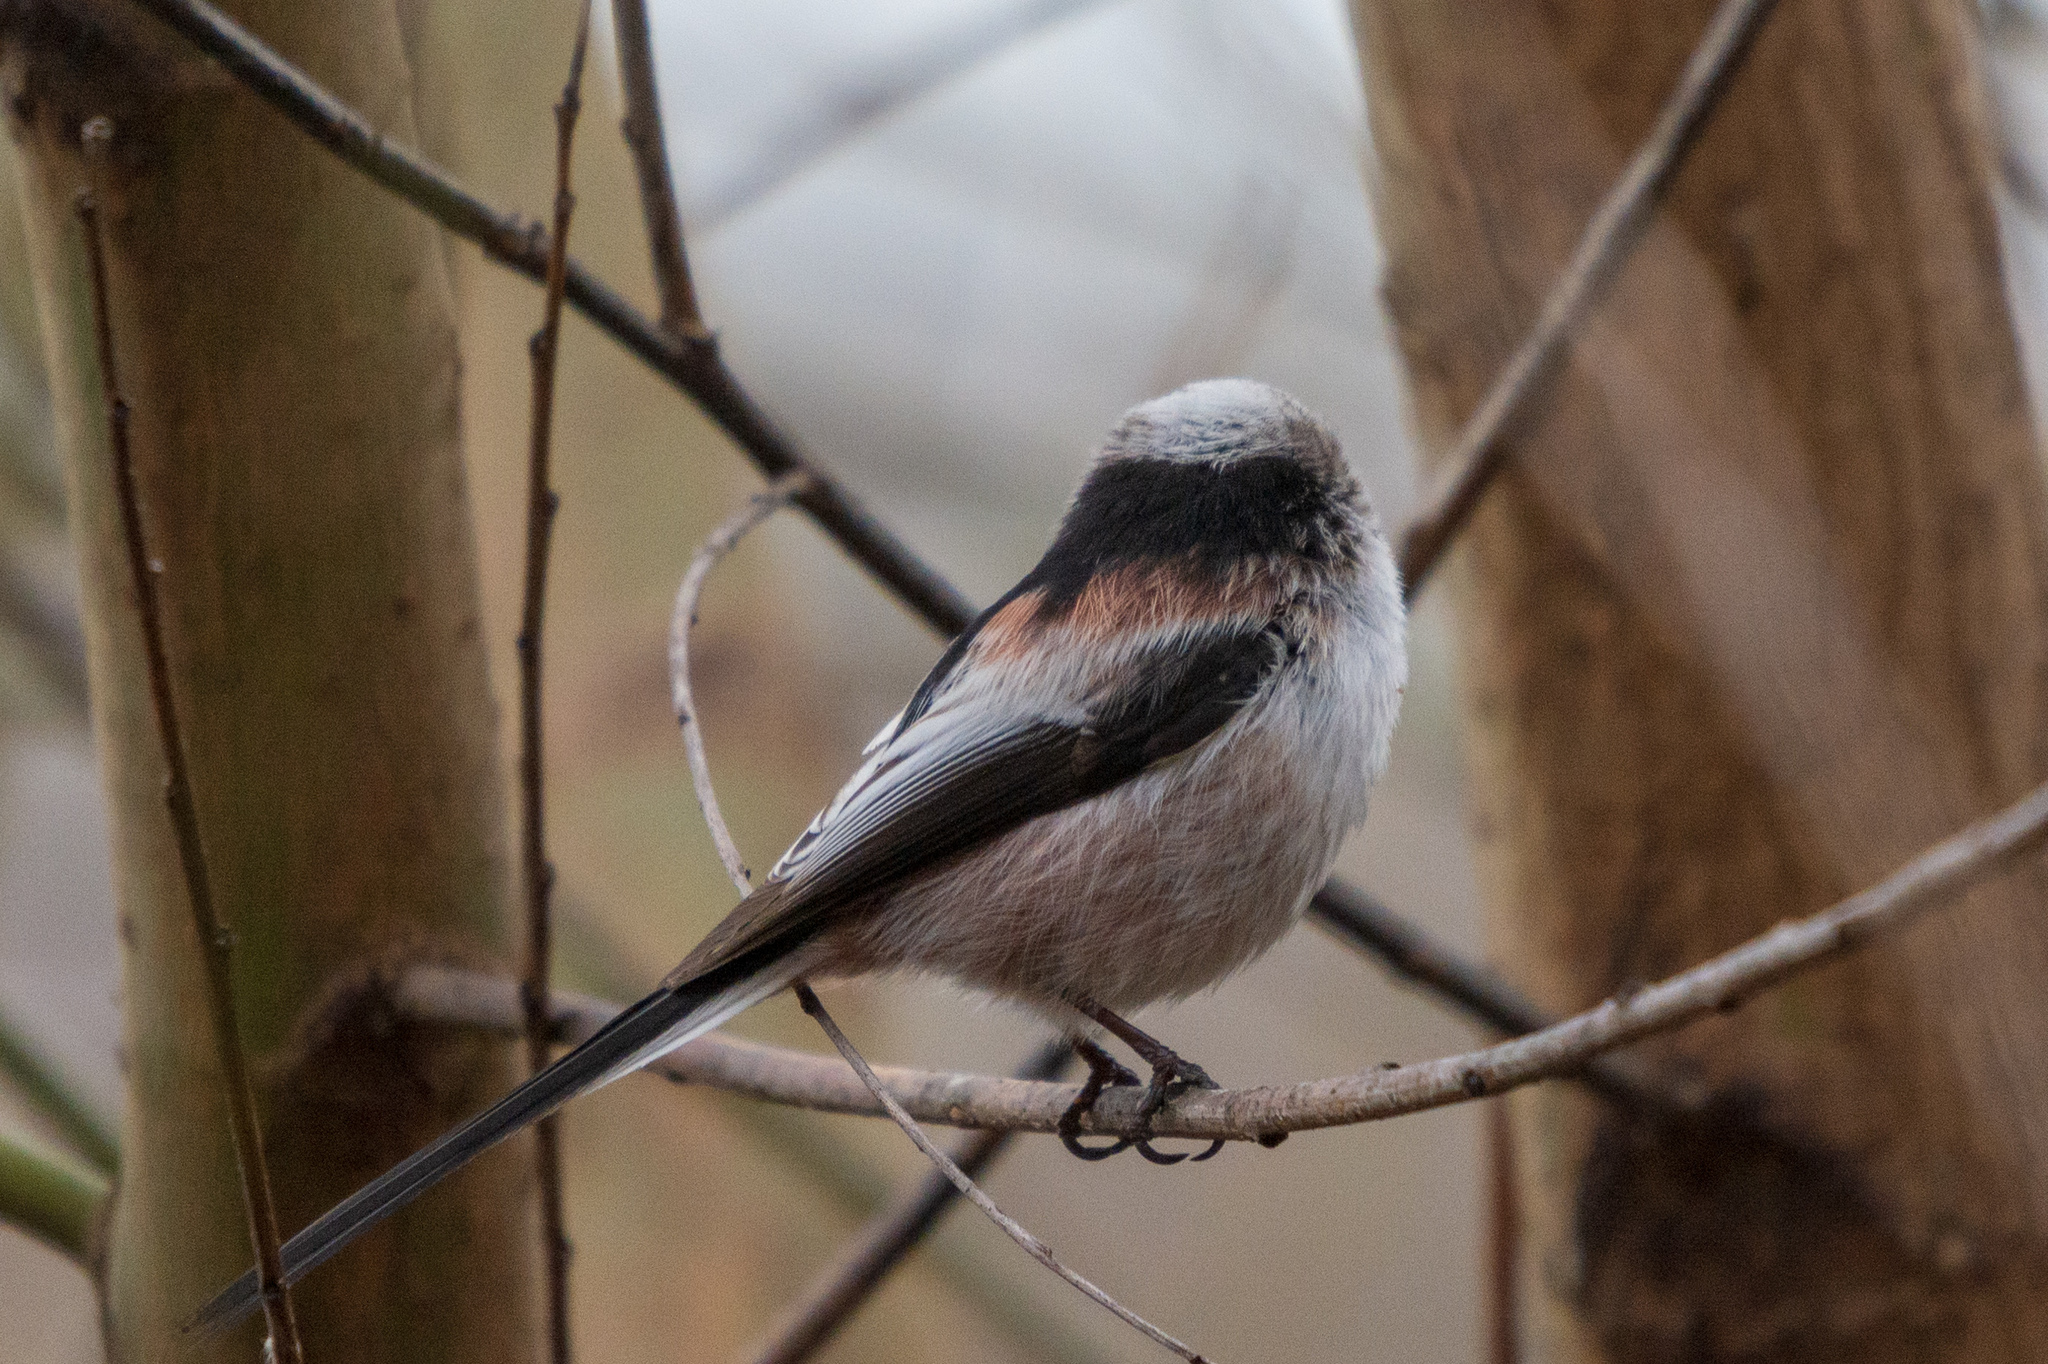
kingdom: Animalia
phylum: Chordata
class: Aves
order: Passeriformes
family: Aegithalidae
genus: Aegithalos
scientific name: Aegithalos caudatus
